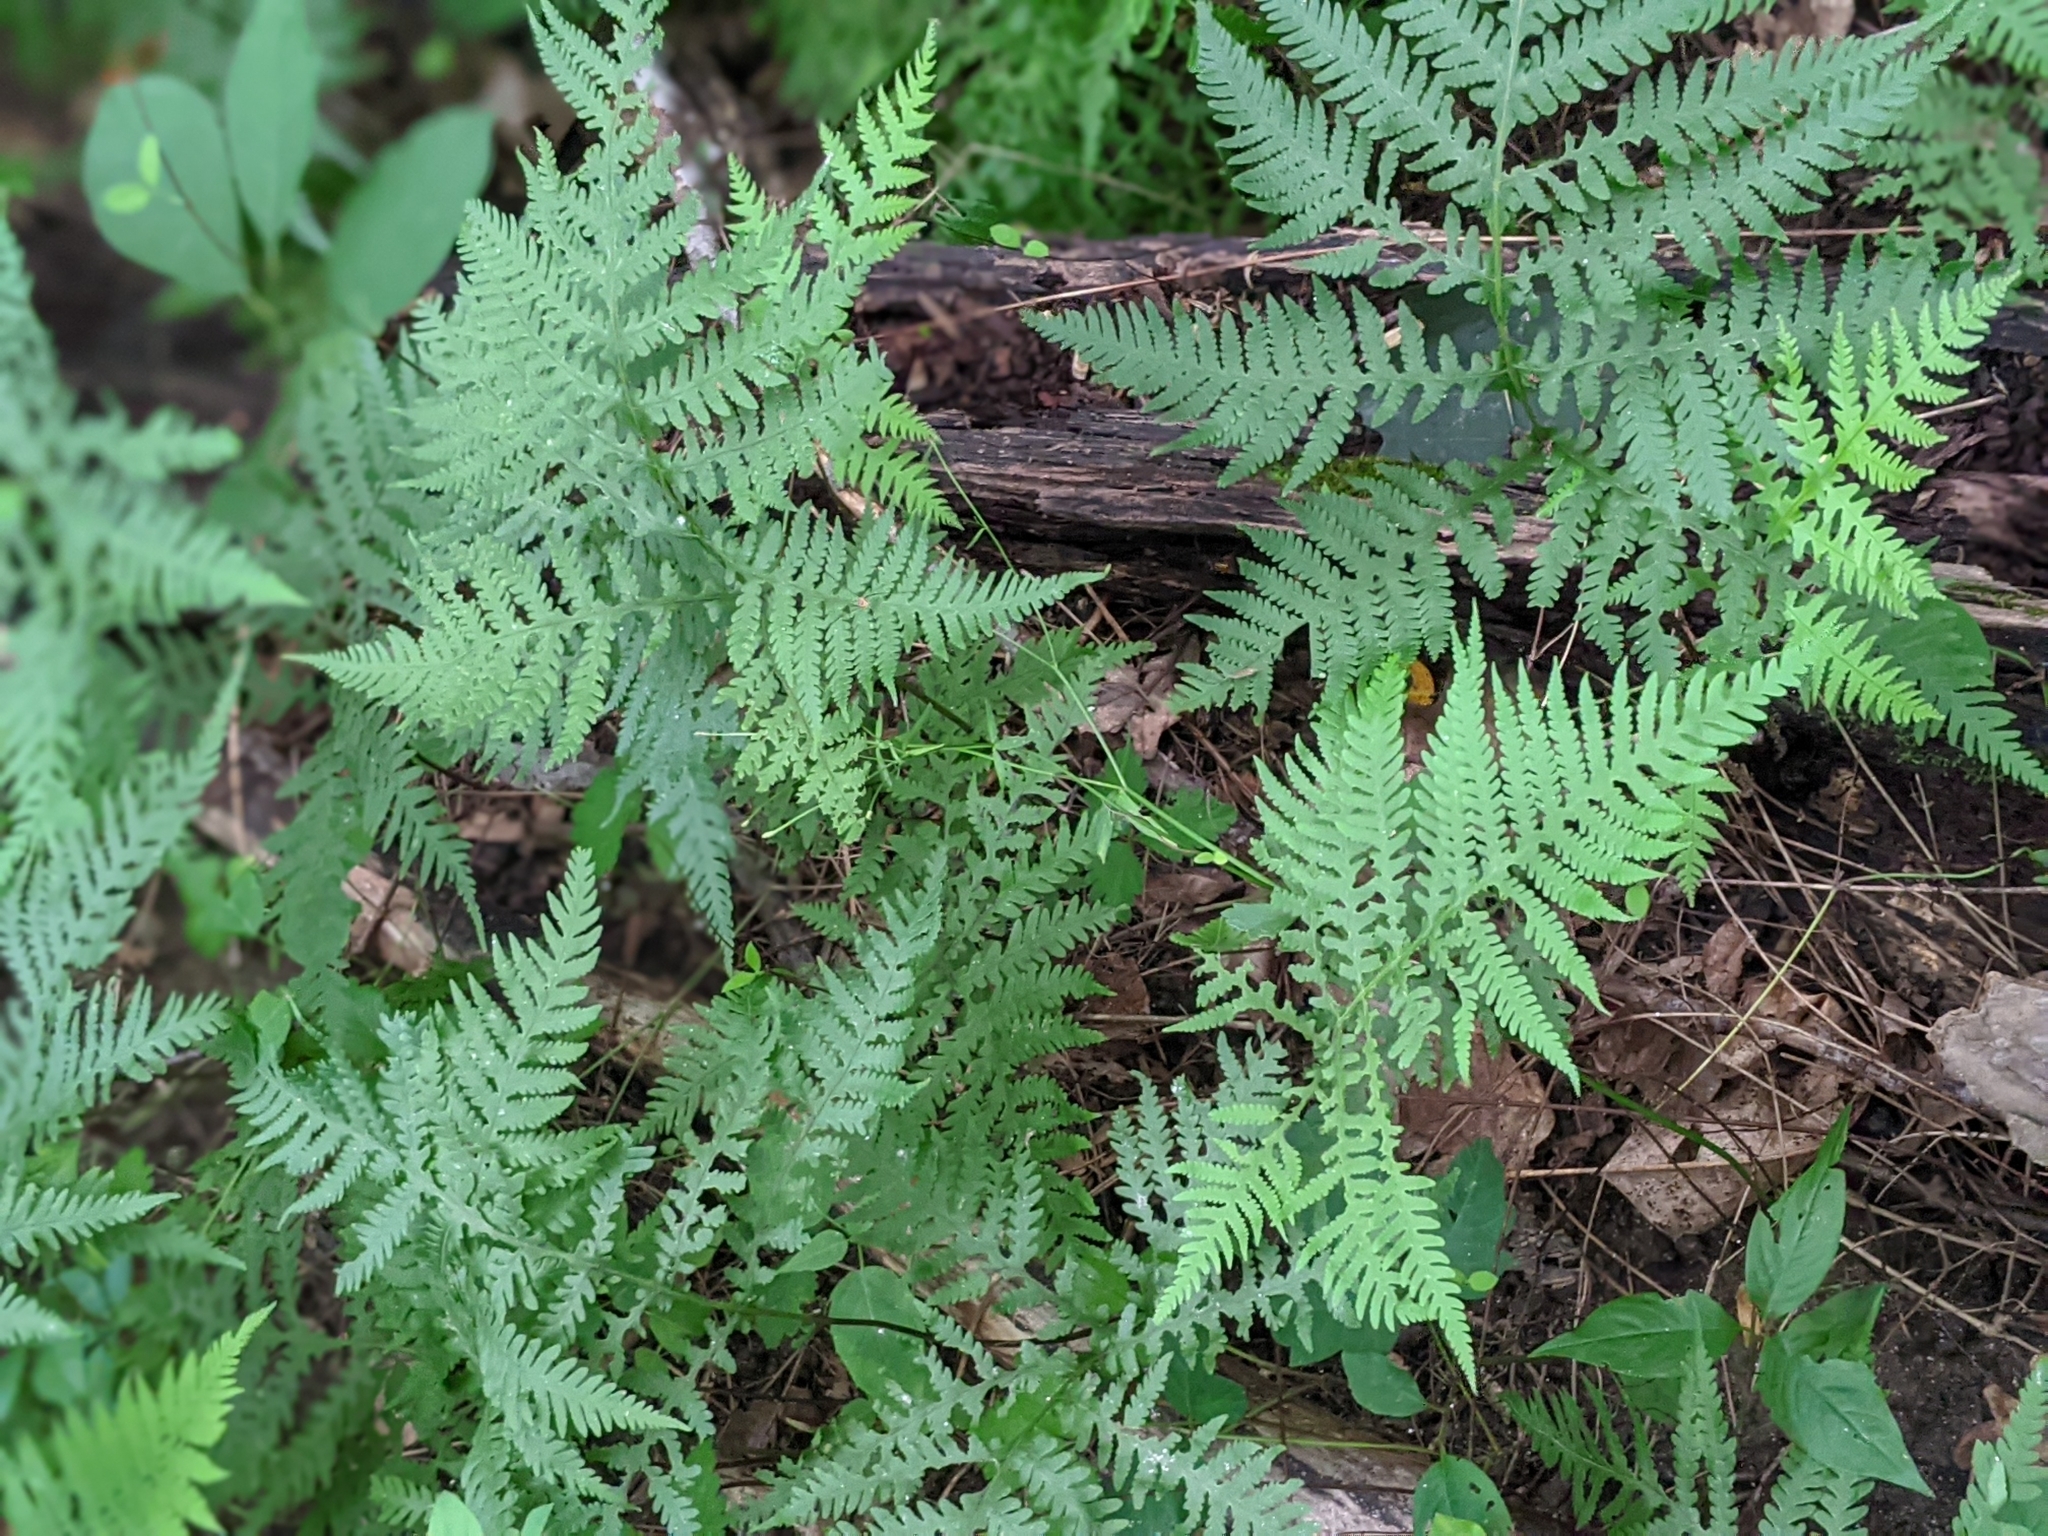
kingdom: Plantae
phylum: Tracheophyta
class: Polypodiopsida
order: Polypodiales
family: Thelypteridaceae
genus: Phegopteris
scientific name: Phegopteris hexagonoptera
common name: Broad beech fern
